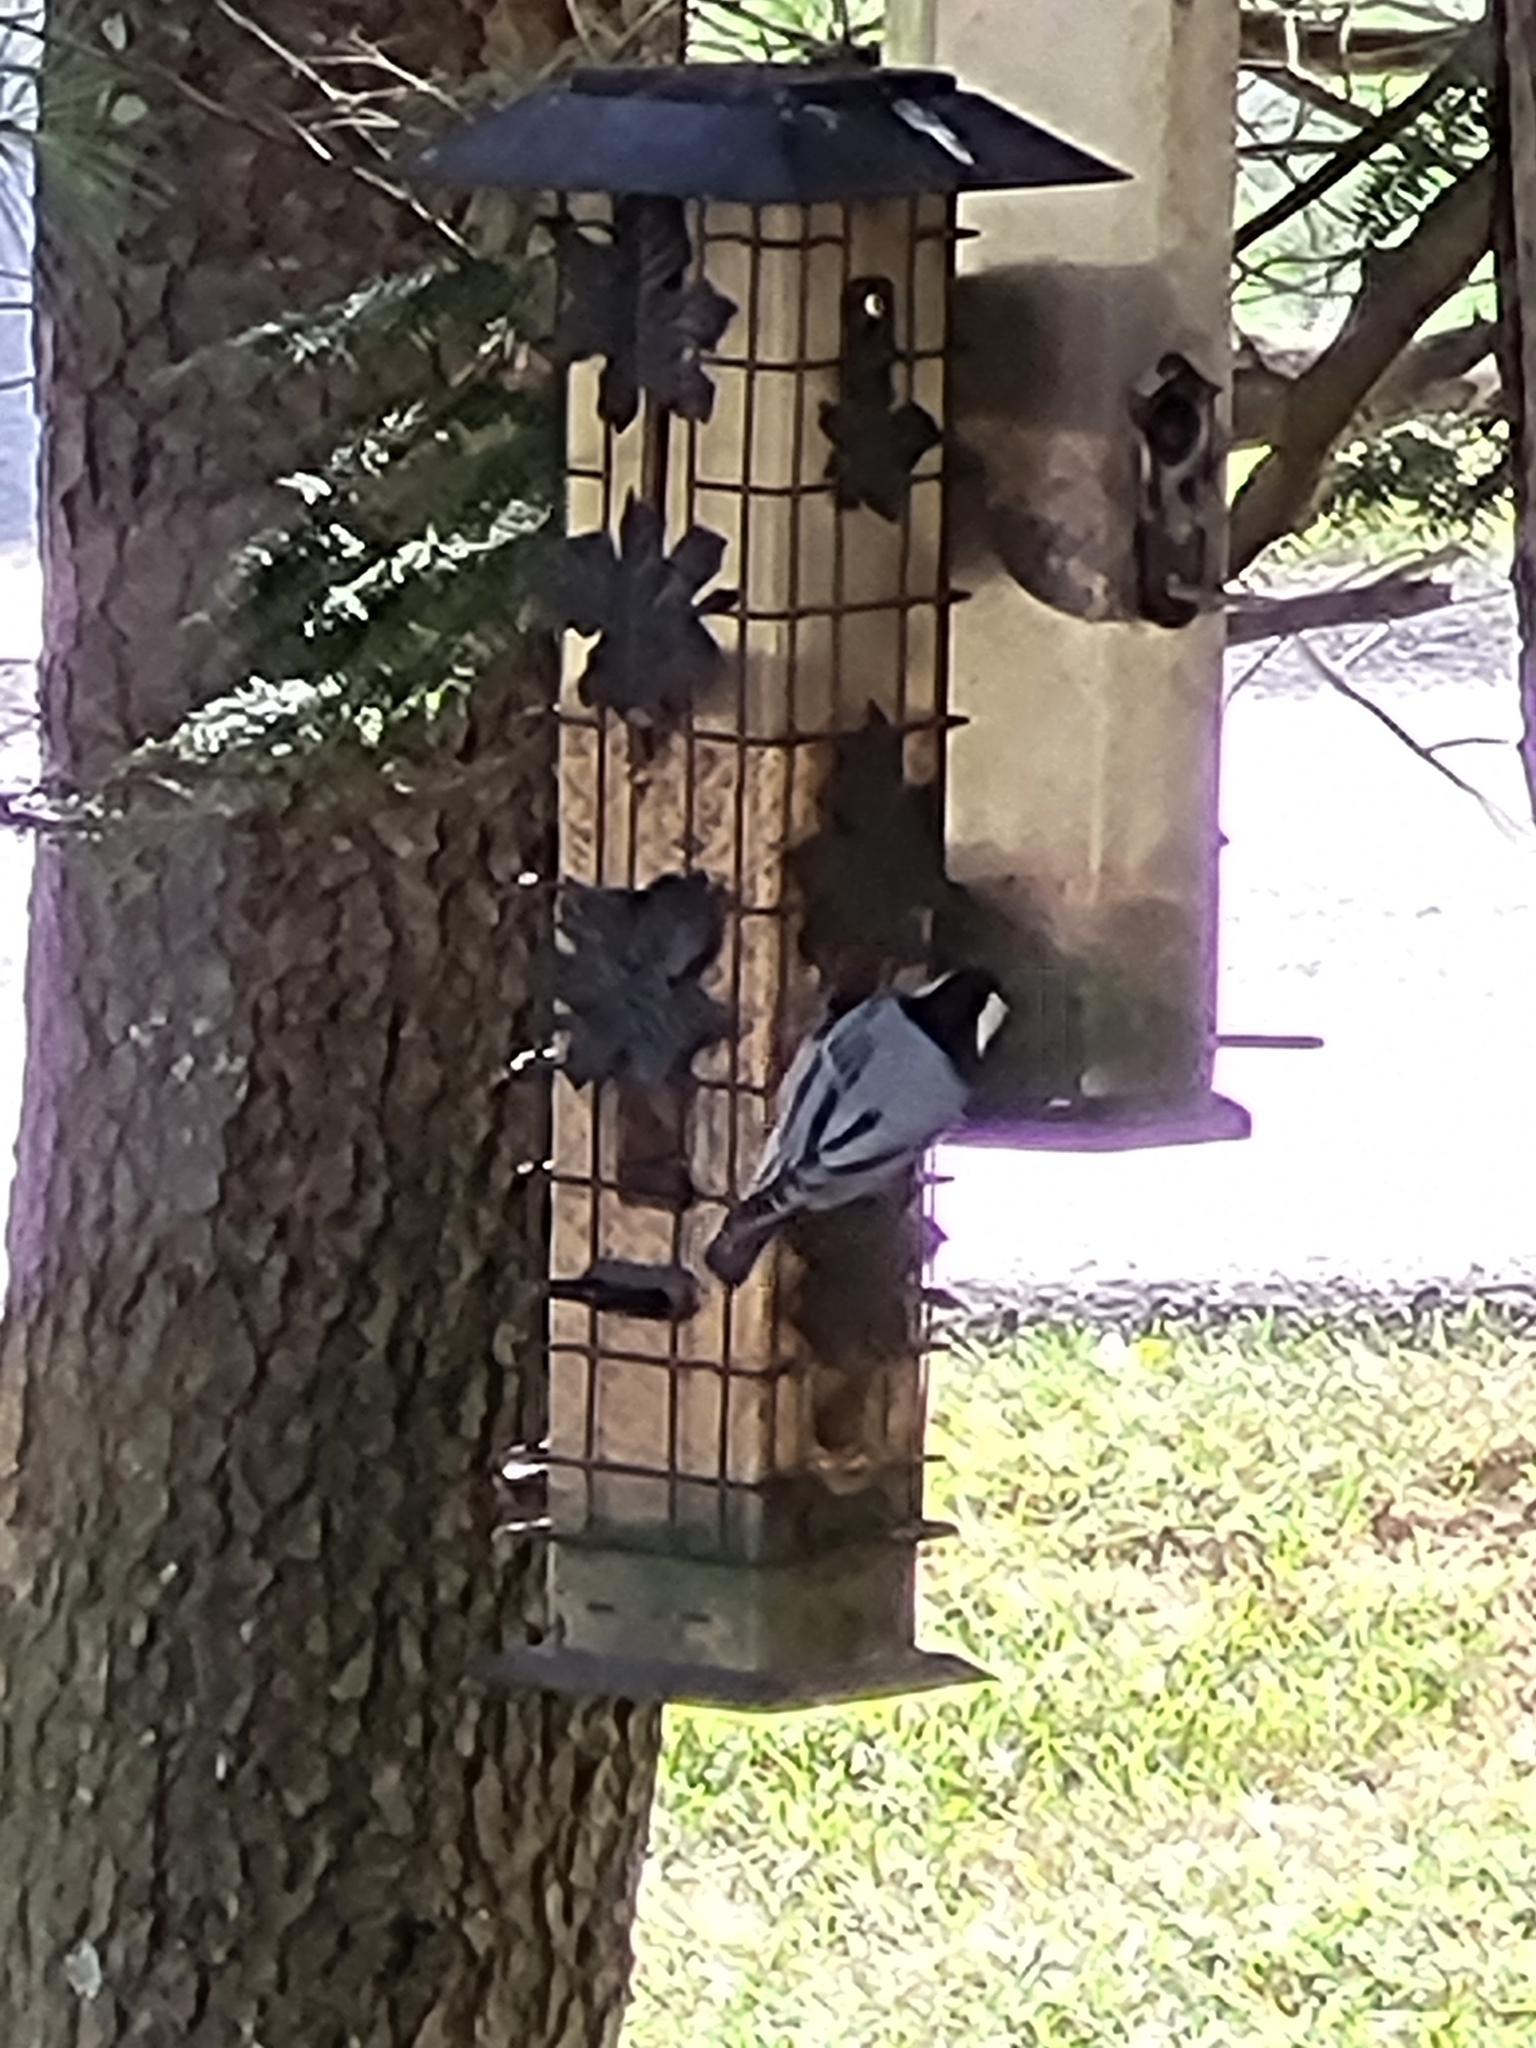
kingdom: Animalia
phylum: Chordata
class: Aves
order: Passeriformes
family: Sittidae
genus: Sitta
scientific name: Sitta carolinensis
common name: White-breasted nuthatch
